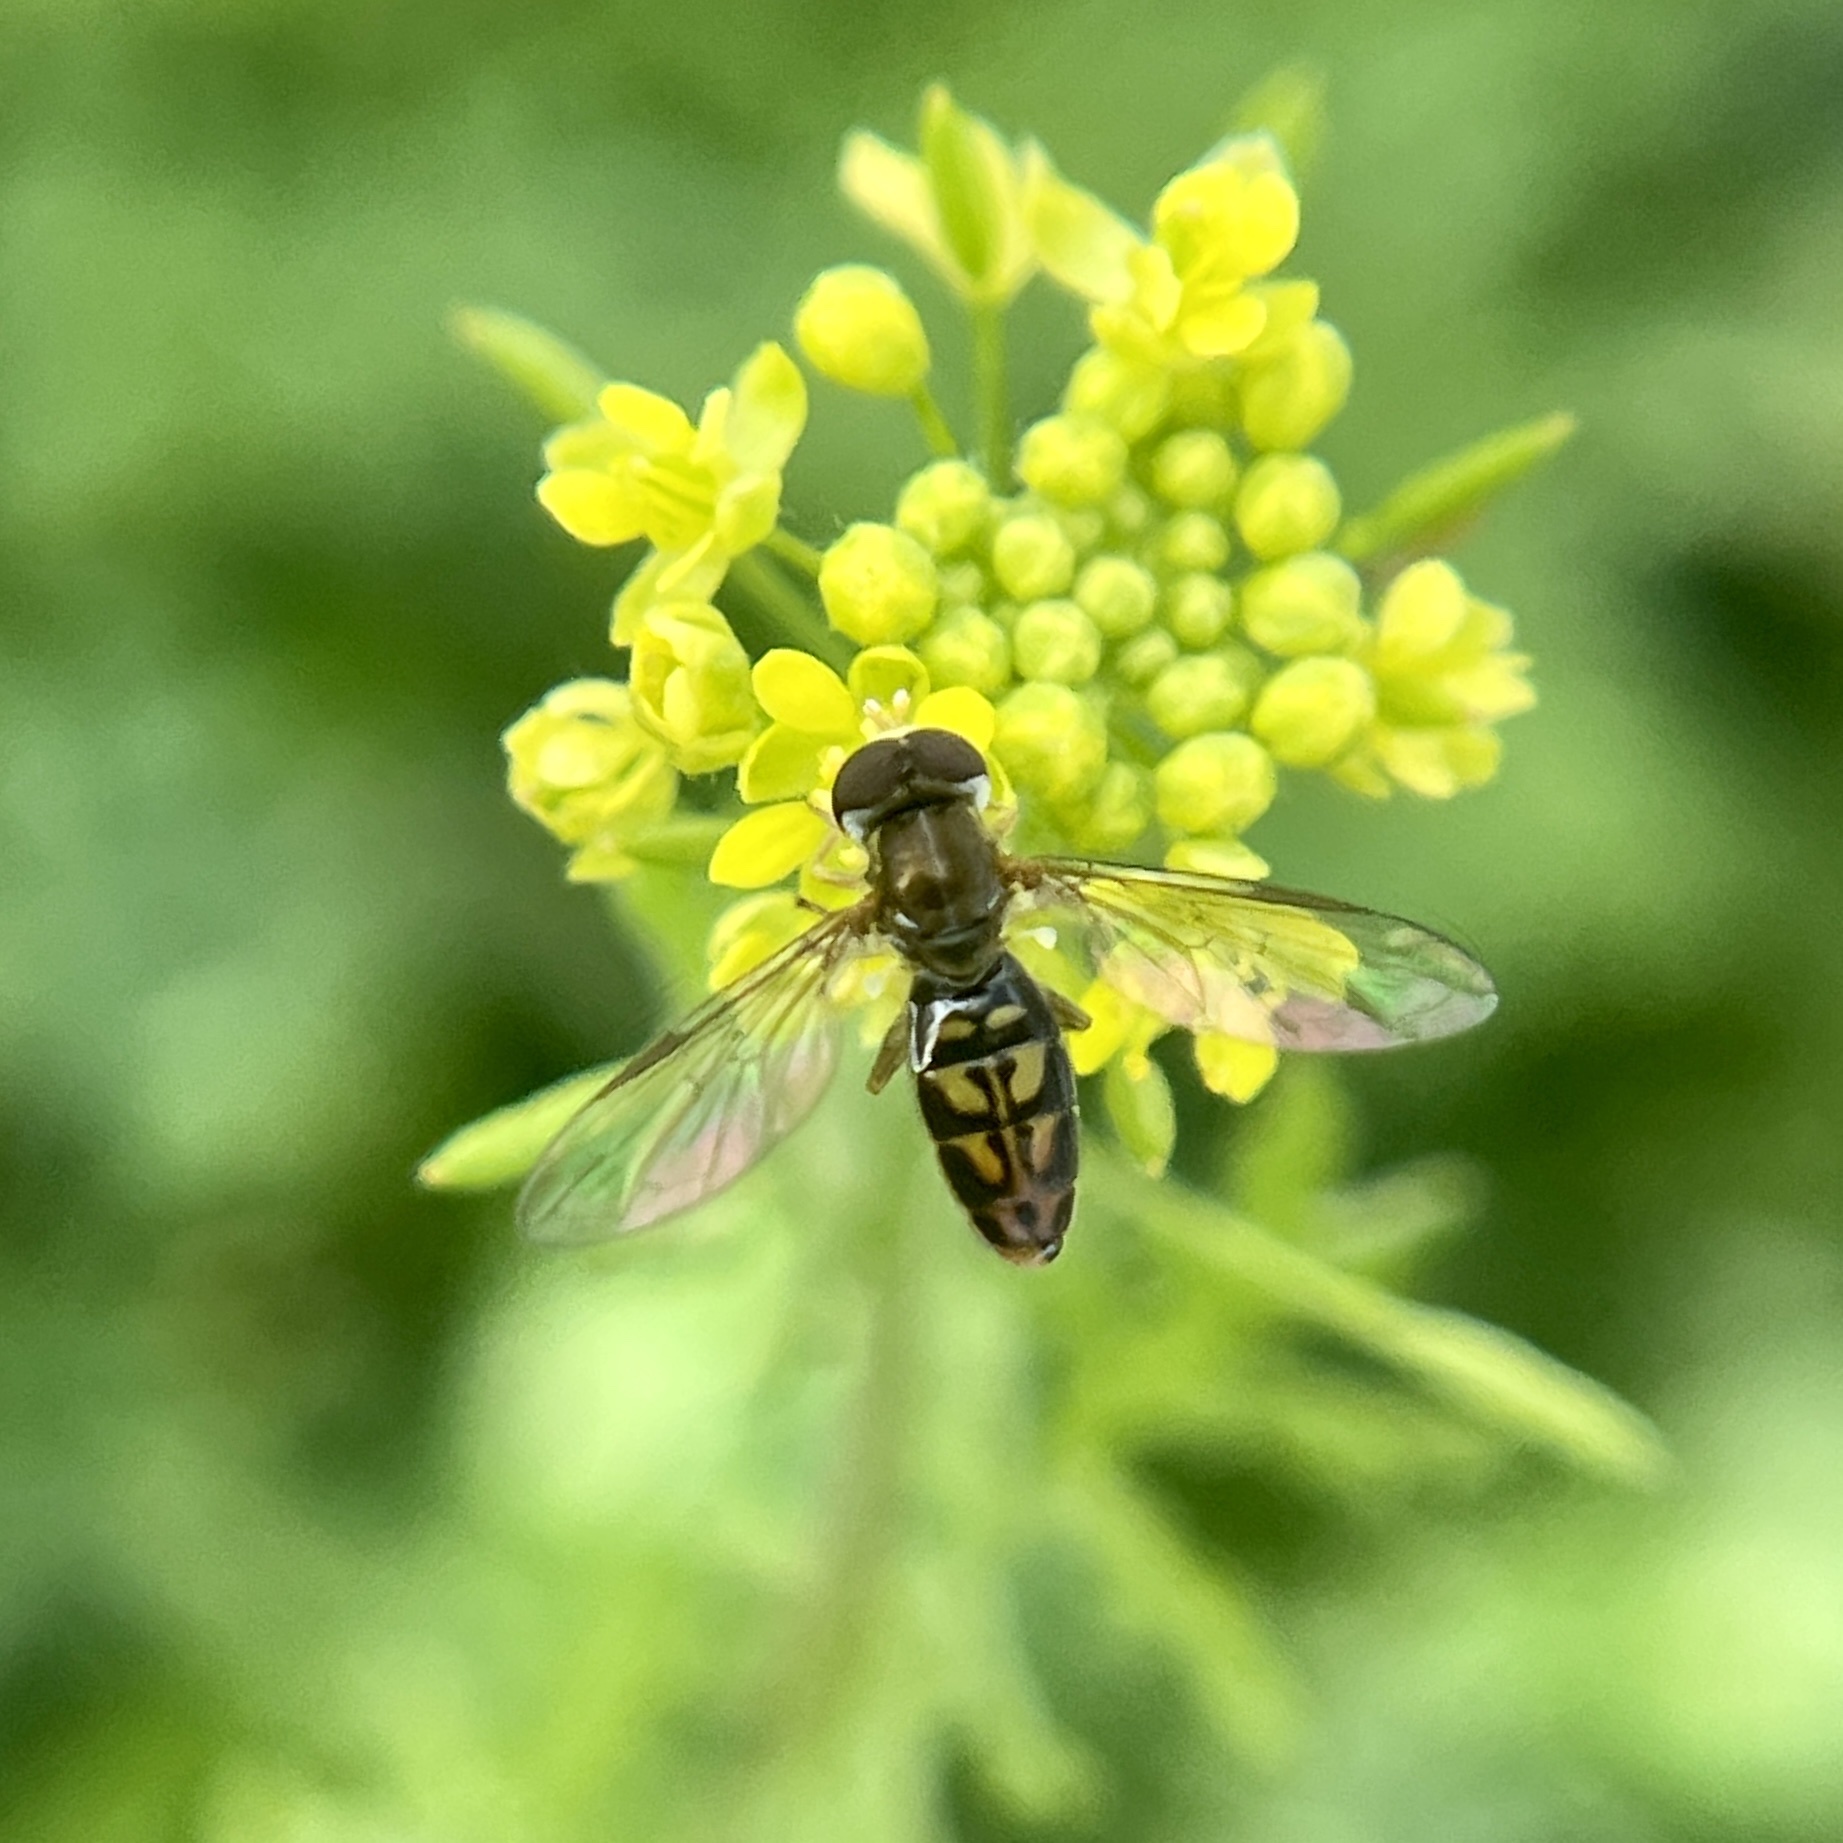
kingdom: Animalia
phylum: Arthropoda
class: Insecta
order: Diptera
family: Syrphidae
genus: Toxomerus
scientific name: Toxomerus marginatus
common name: Syrphid fly
